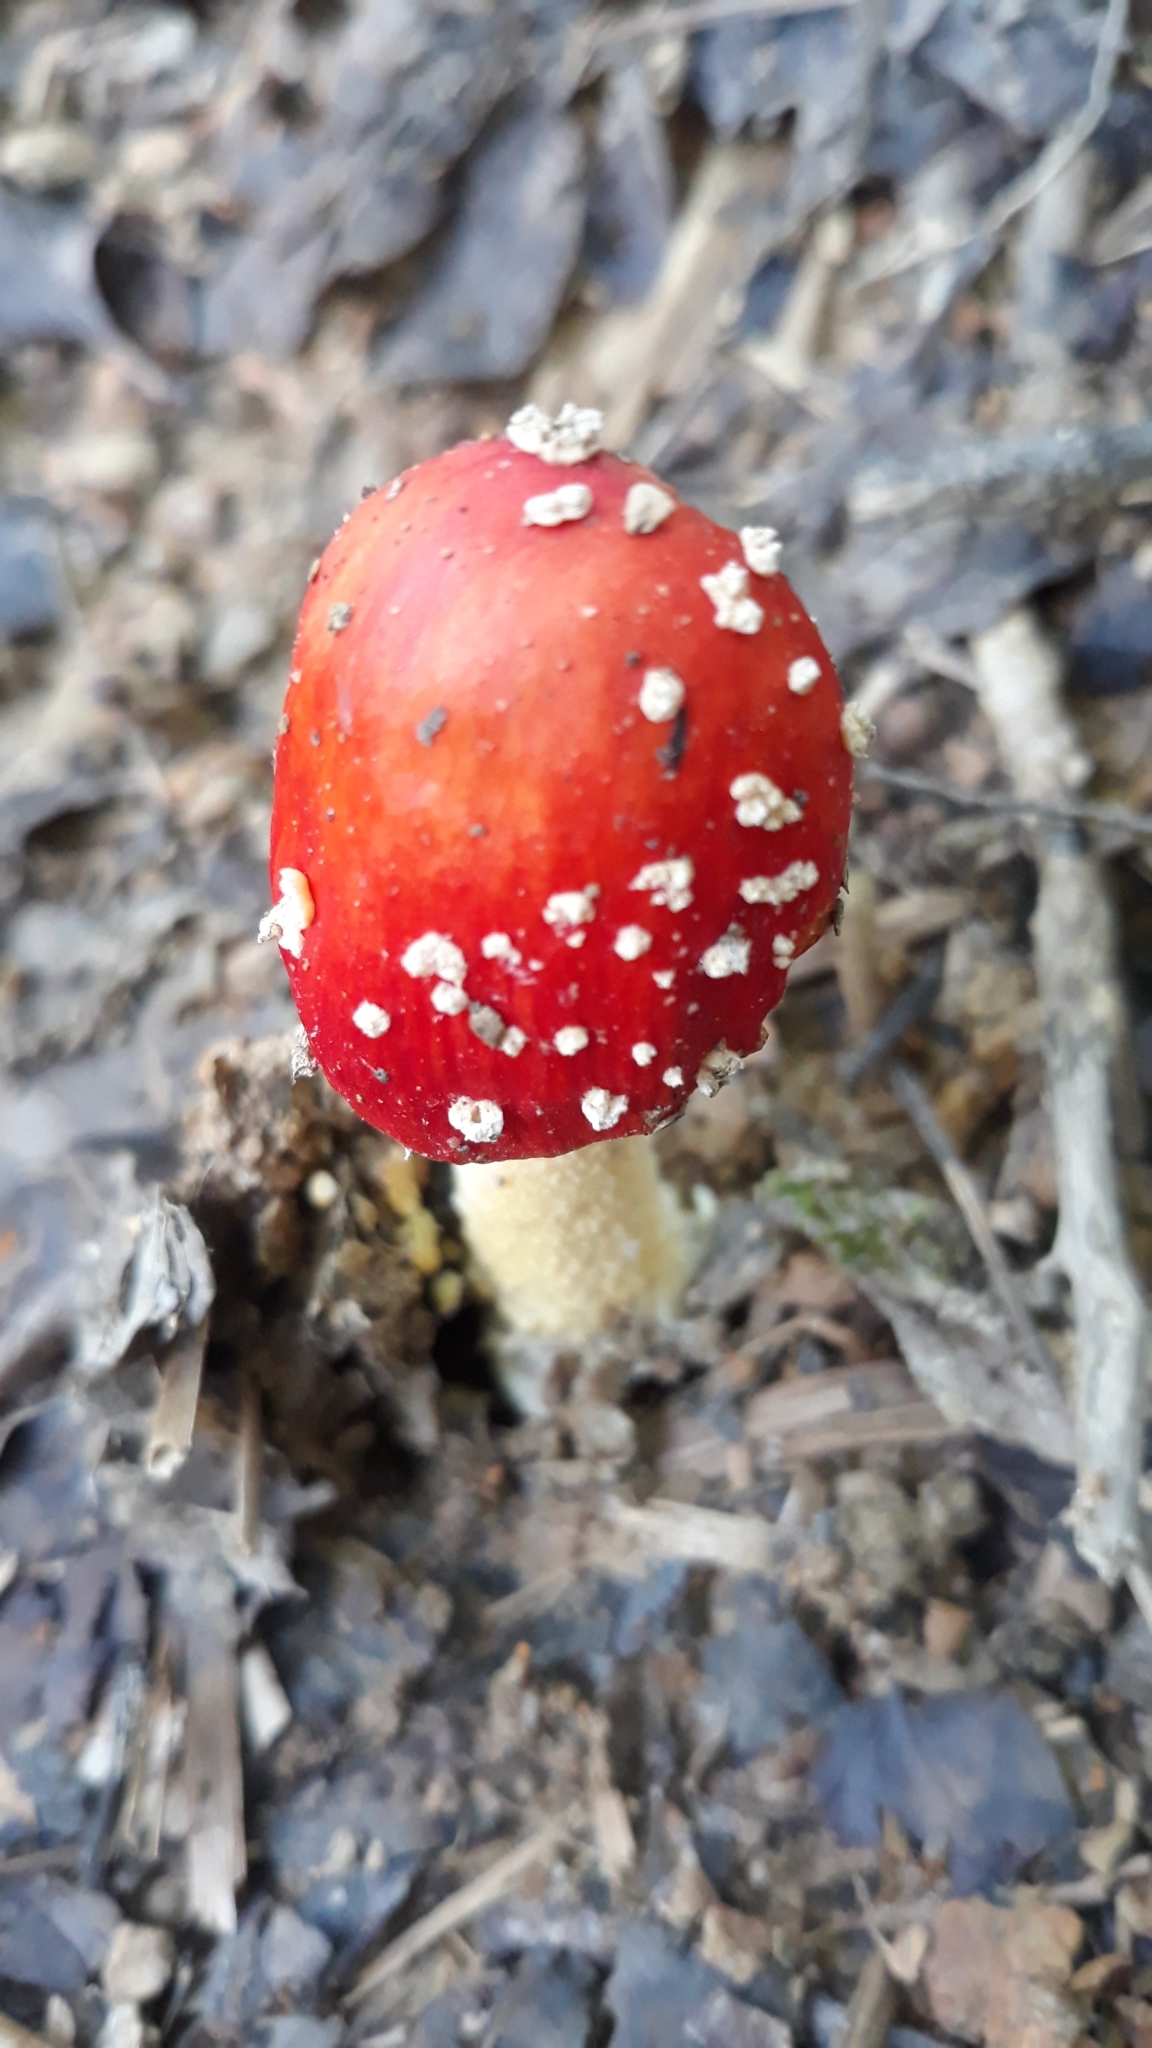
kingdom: Fungi
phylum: Basidiomycota
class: Agaricomycetes
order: Agaricales
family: Amanitaceae
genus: Amanita
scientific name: Amanita parcivolvata
